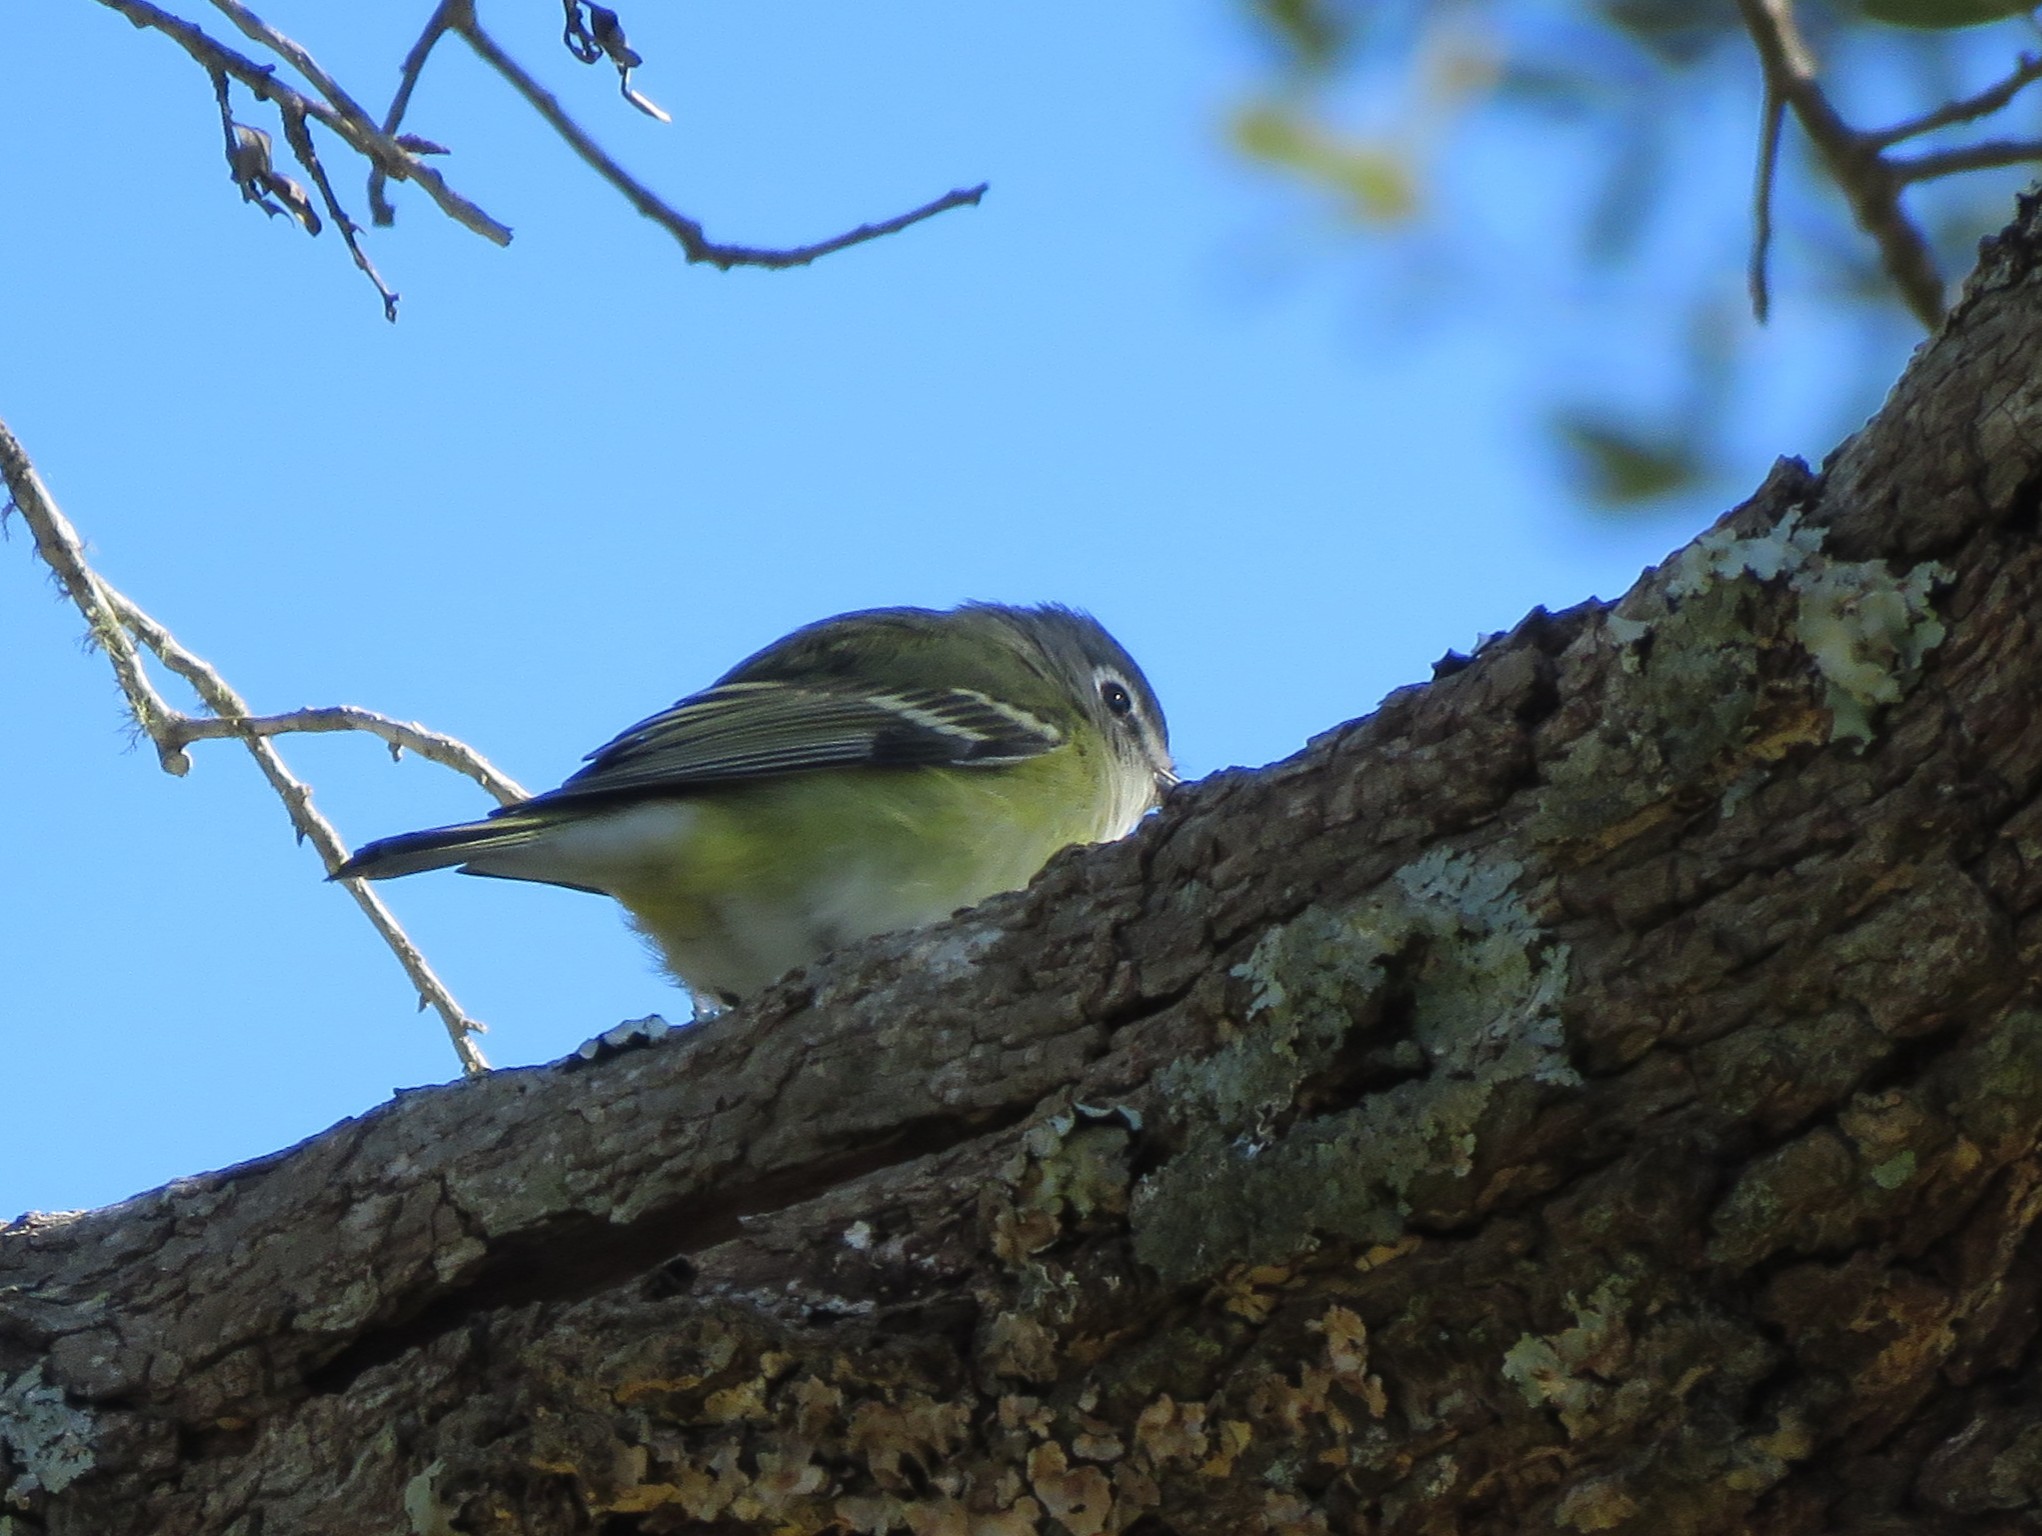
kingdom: Animalia
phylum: Chordata
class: Aves
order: Passeriformes
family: Vireonidae
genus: Vireo
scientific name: Vireo solitarius
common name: Blue-headed vireo
